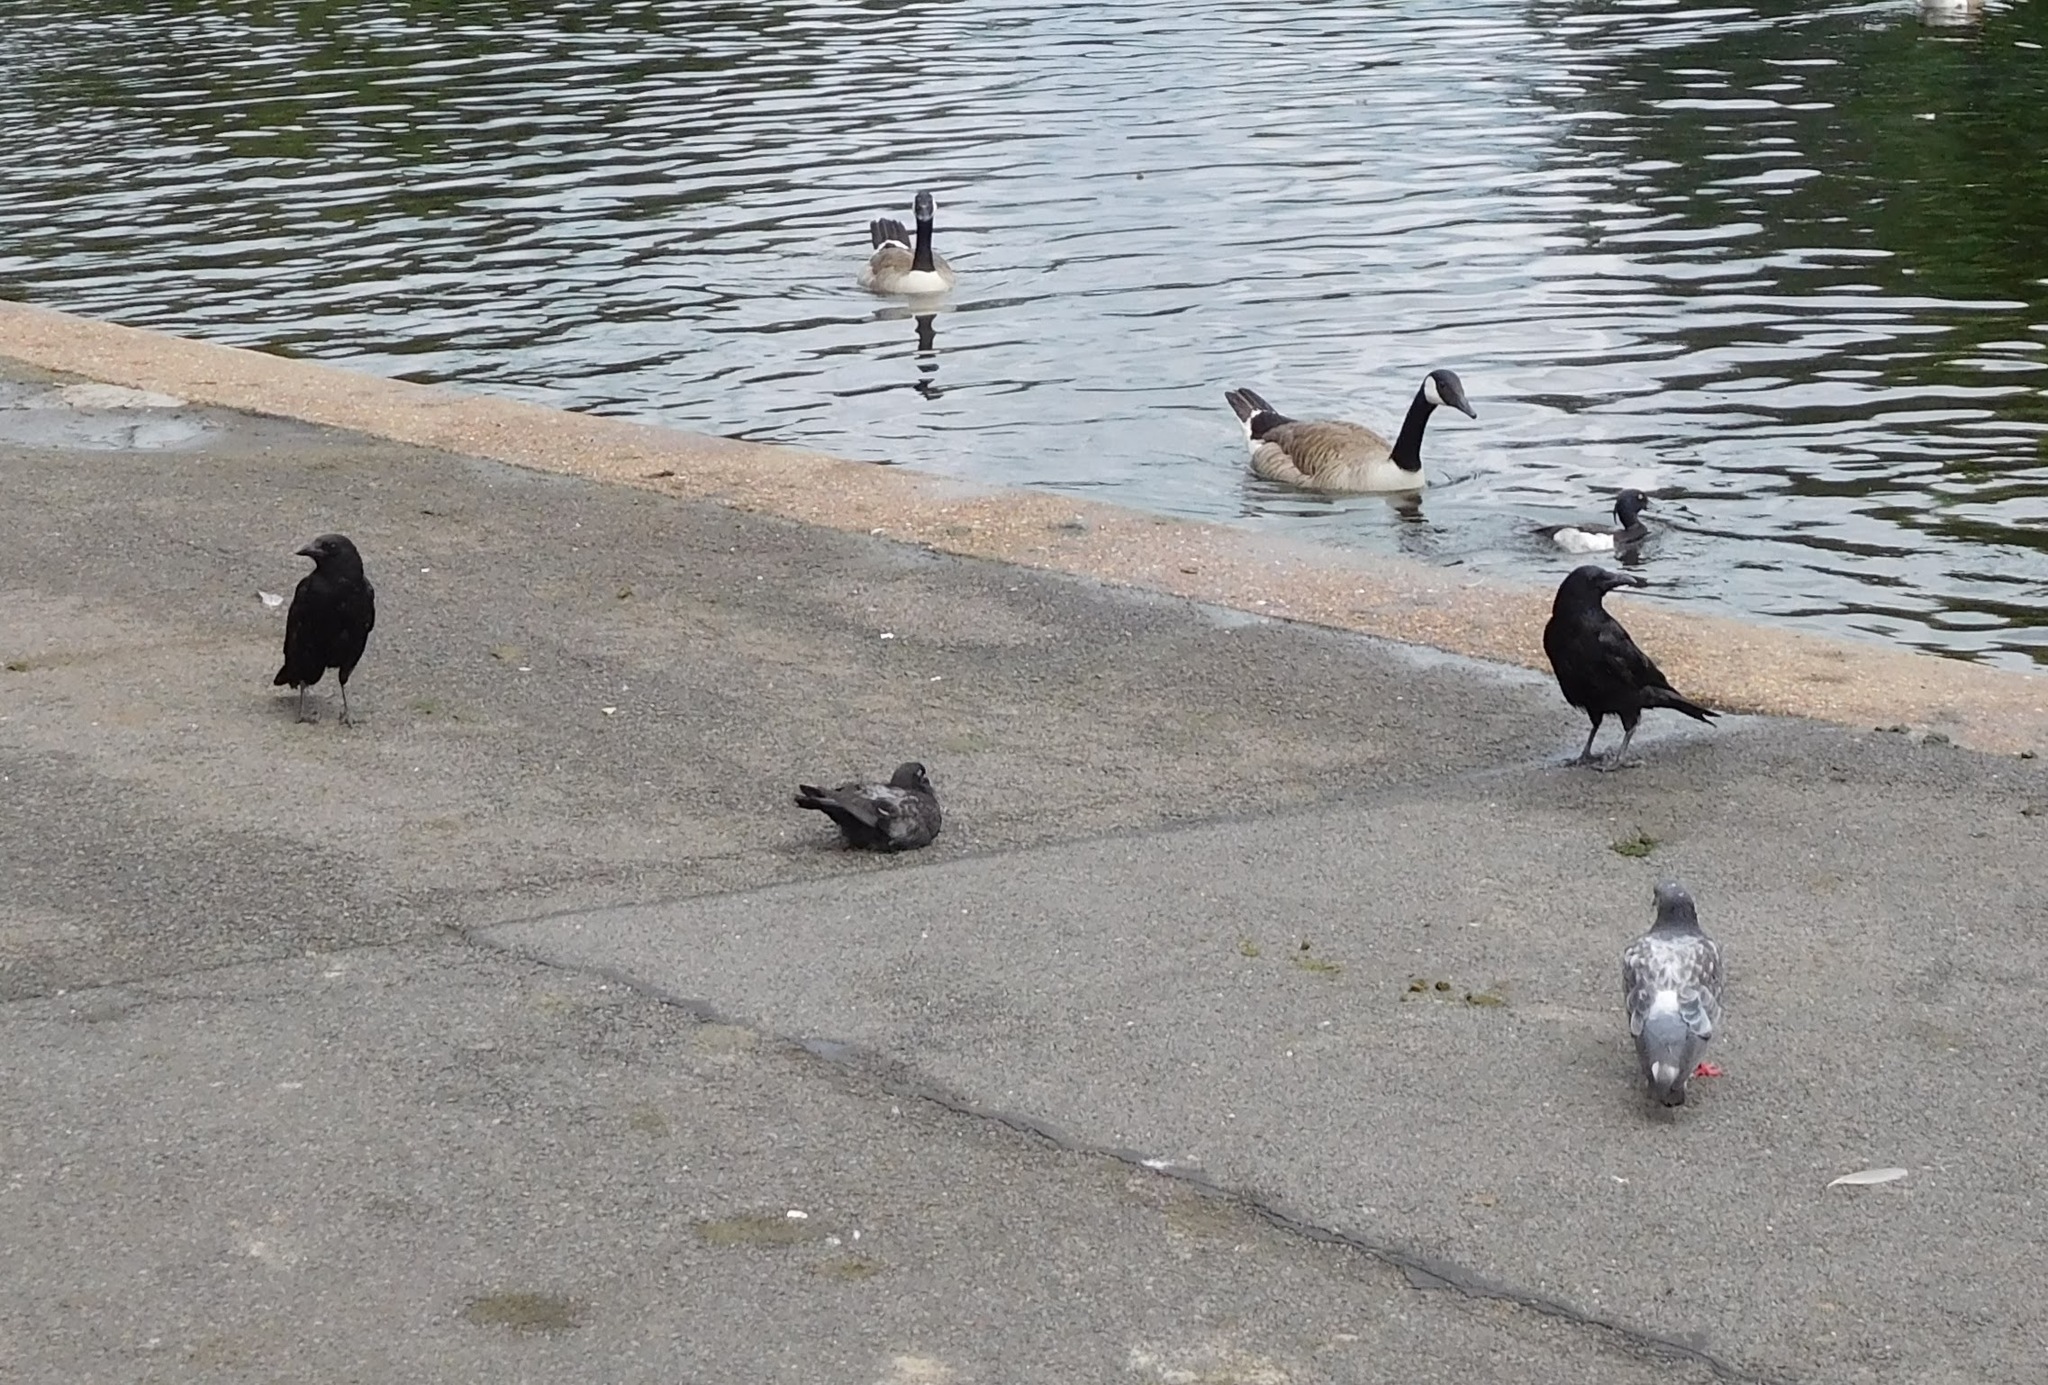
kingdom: Animalia
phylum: Chordata
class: Aves
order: Passeriformes
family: Corvidae
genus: Corvus
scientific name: Corvus corone
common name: Carrion crow
